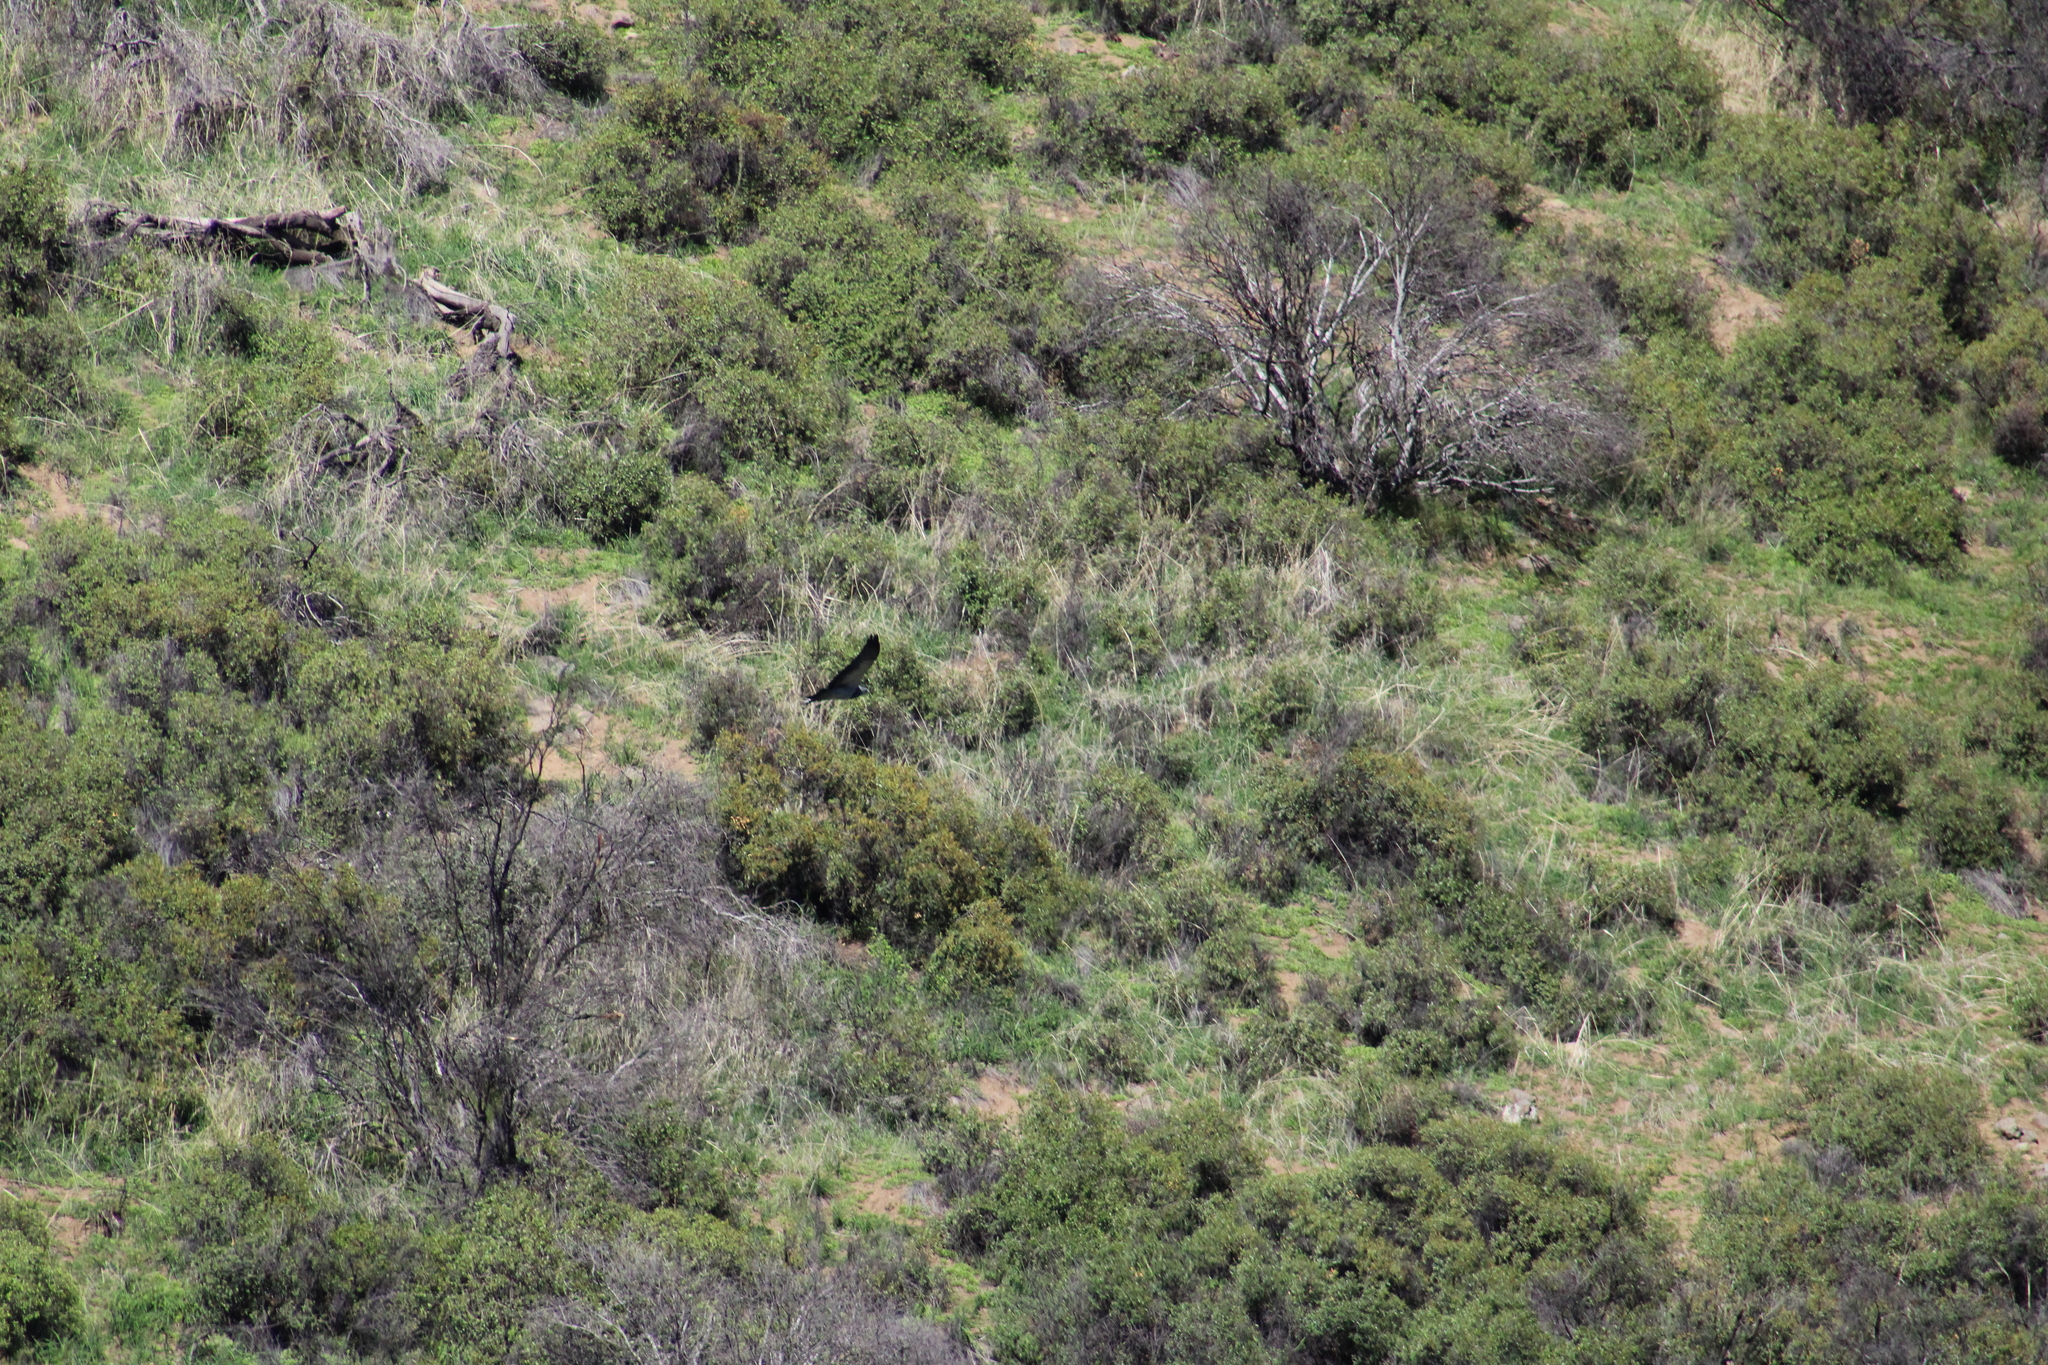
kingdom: Animalia
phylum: Chordata
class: Aves
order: Accipitriformes
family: Accipitridae
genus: Geranoaetus
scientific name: Geranoaetus melanoleucus
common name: Black-chested buzzard-eagle
